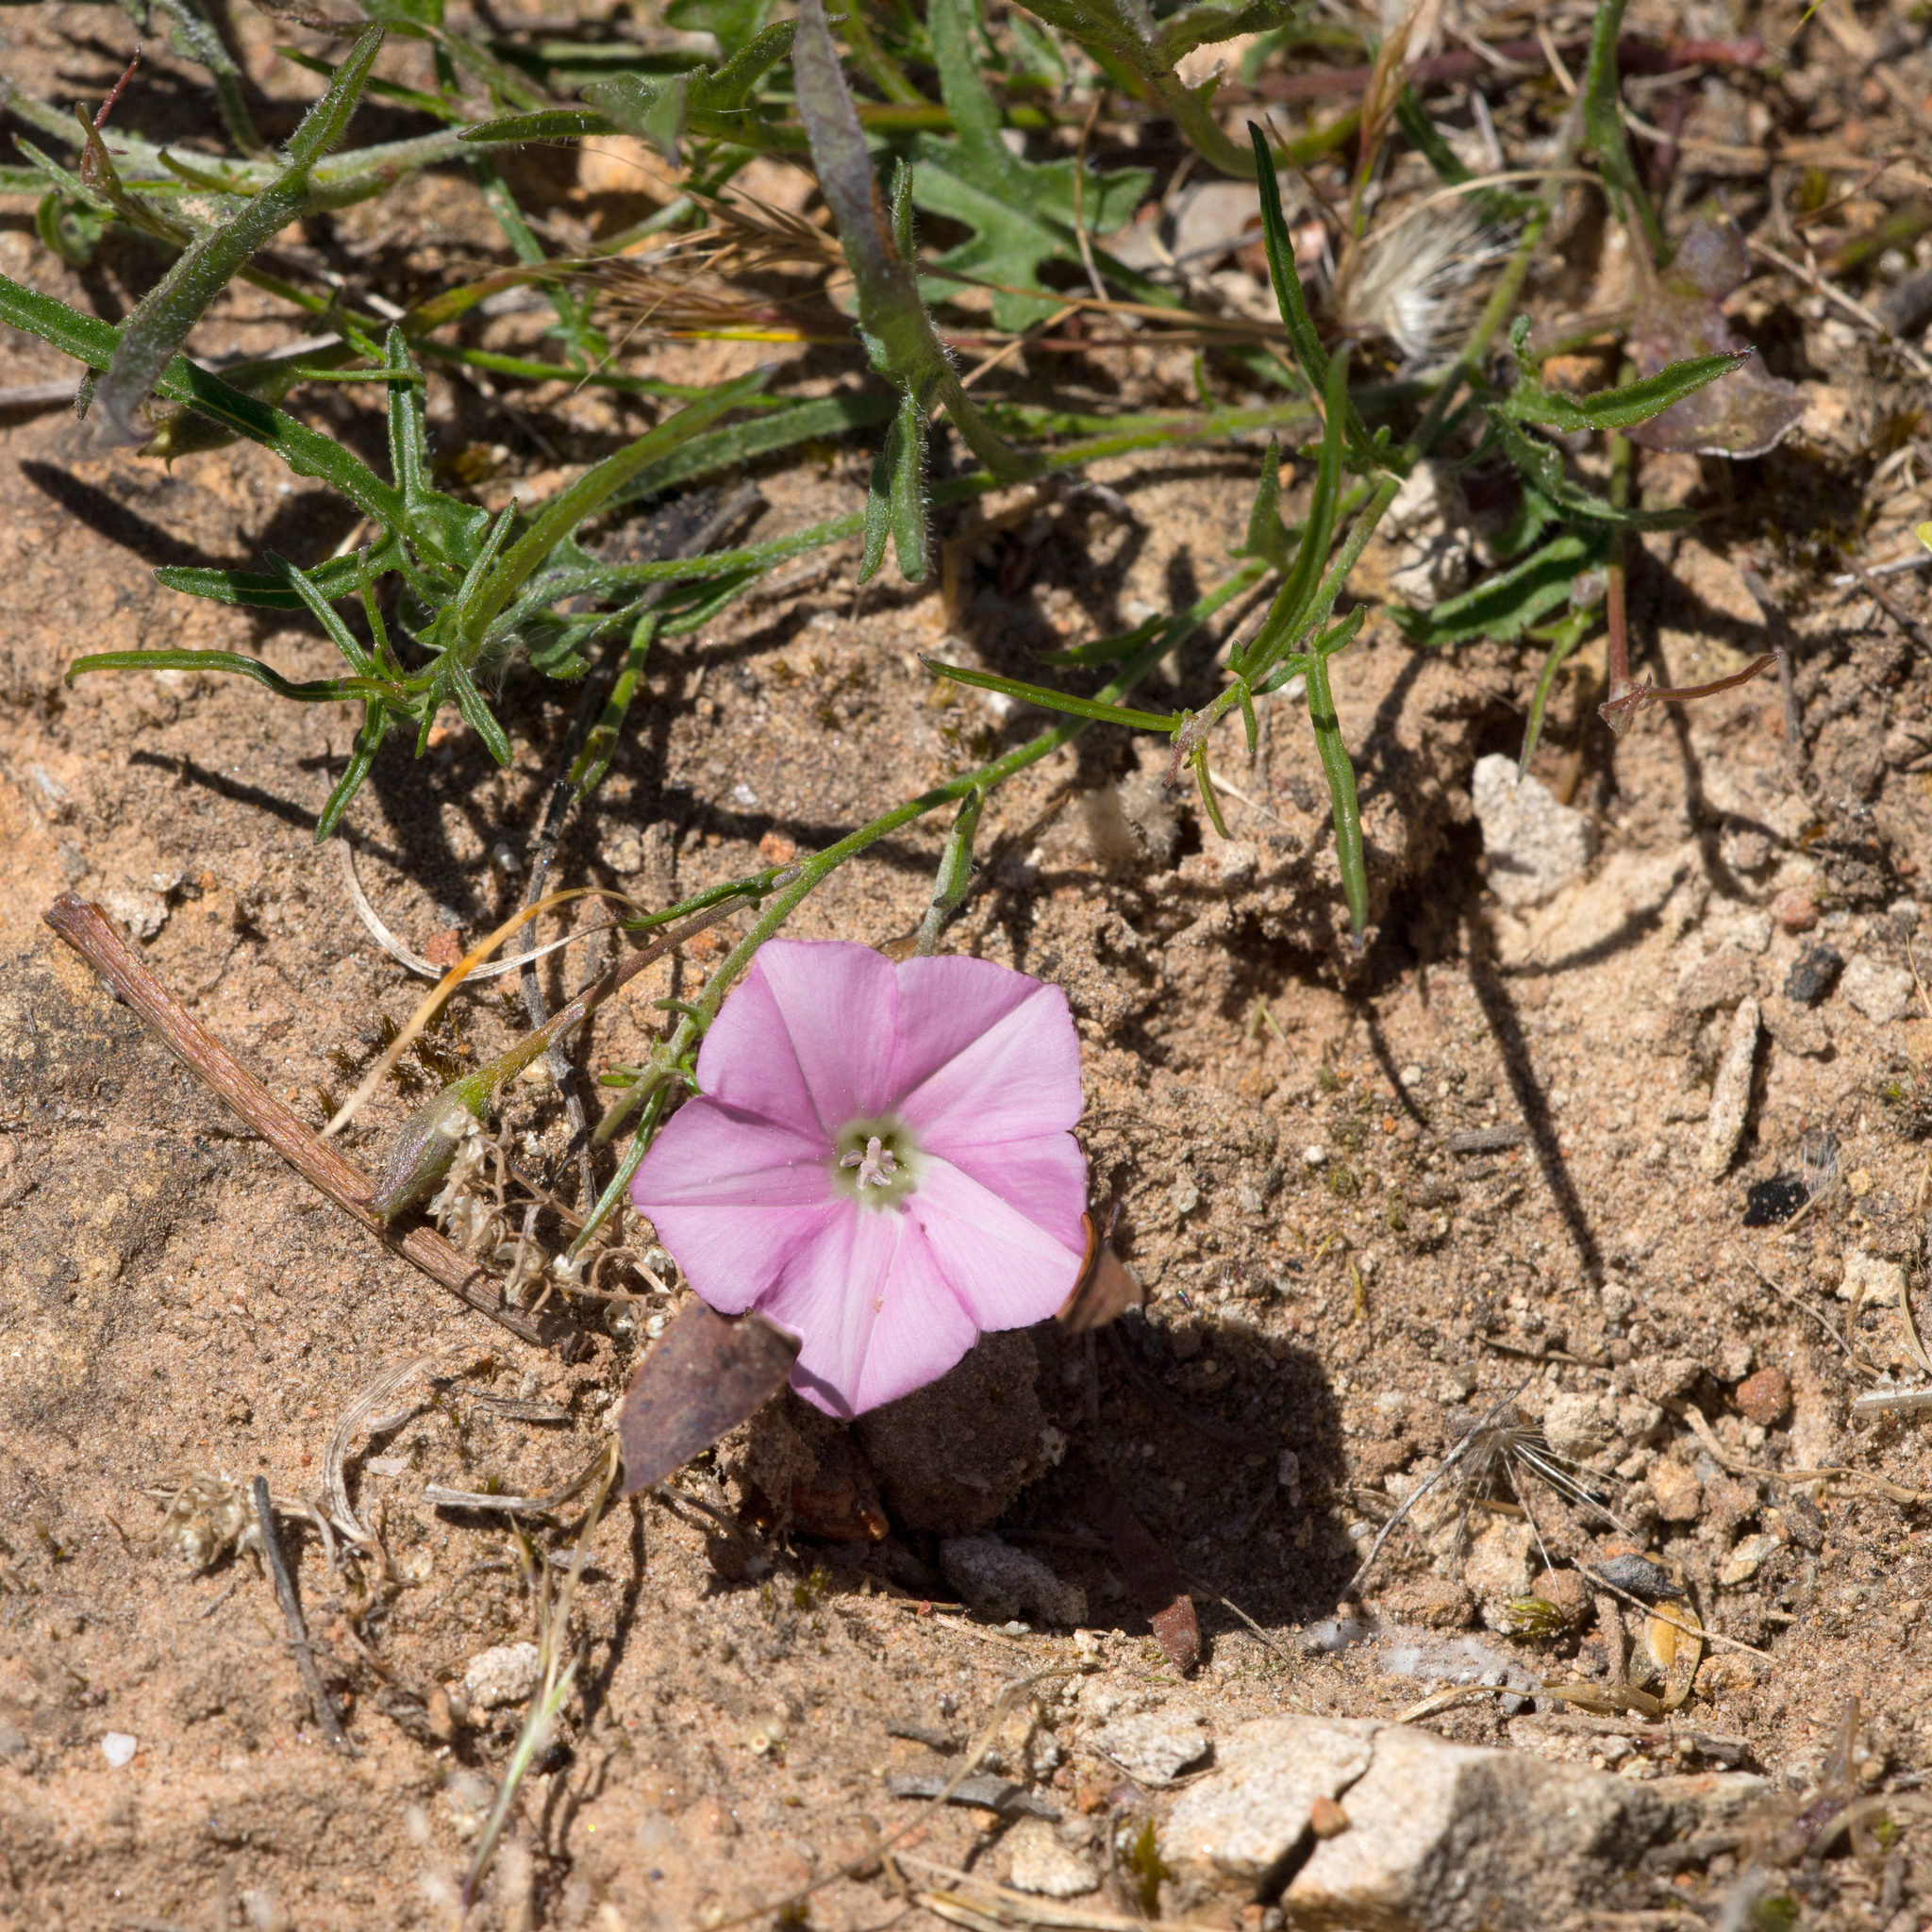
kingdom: Plantae
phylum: Tracheophyta
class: Magnoliopsida
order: Solanales
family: Convolvulaceae
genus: Convolvulus
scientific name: Convolvulus angustissimus
